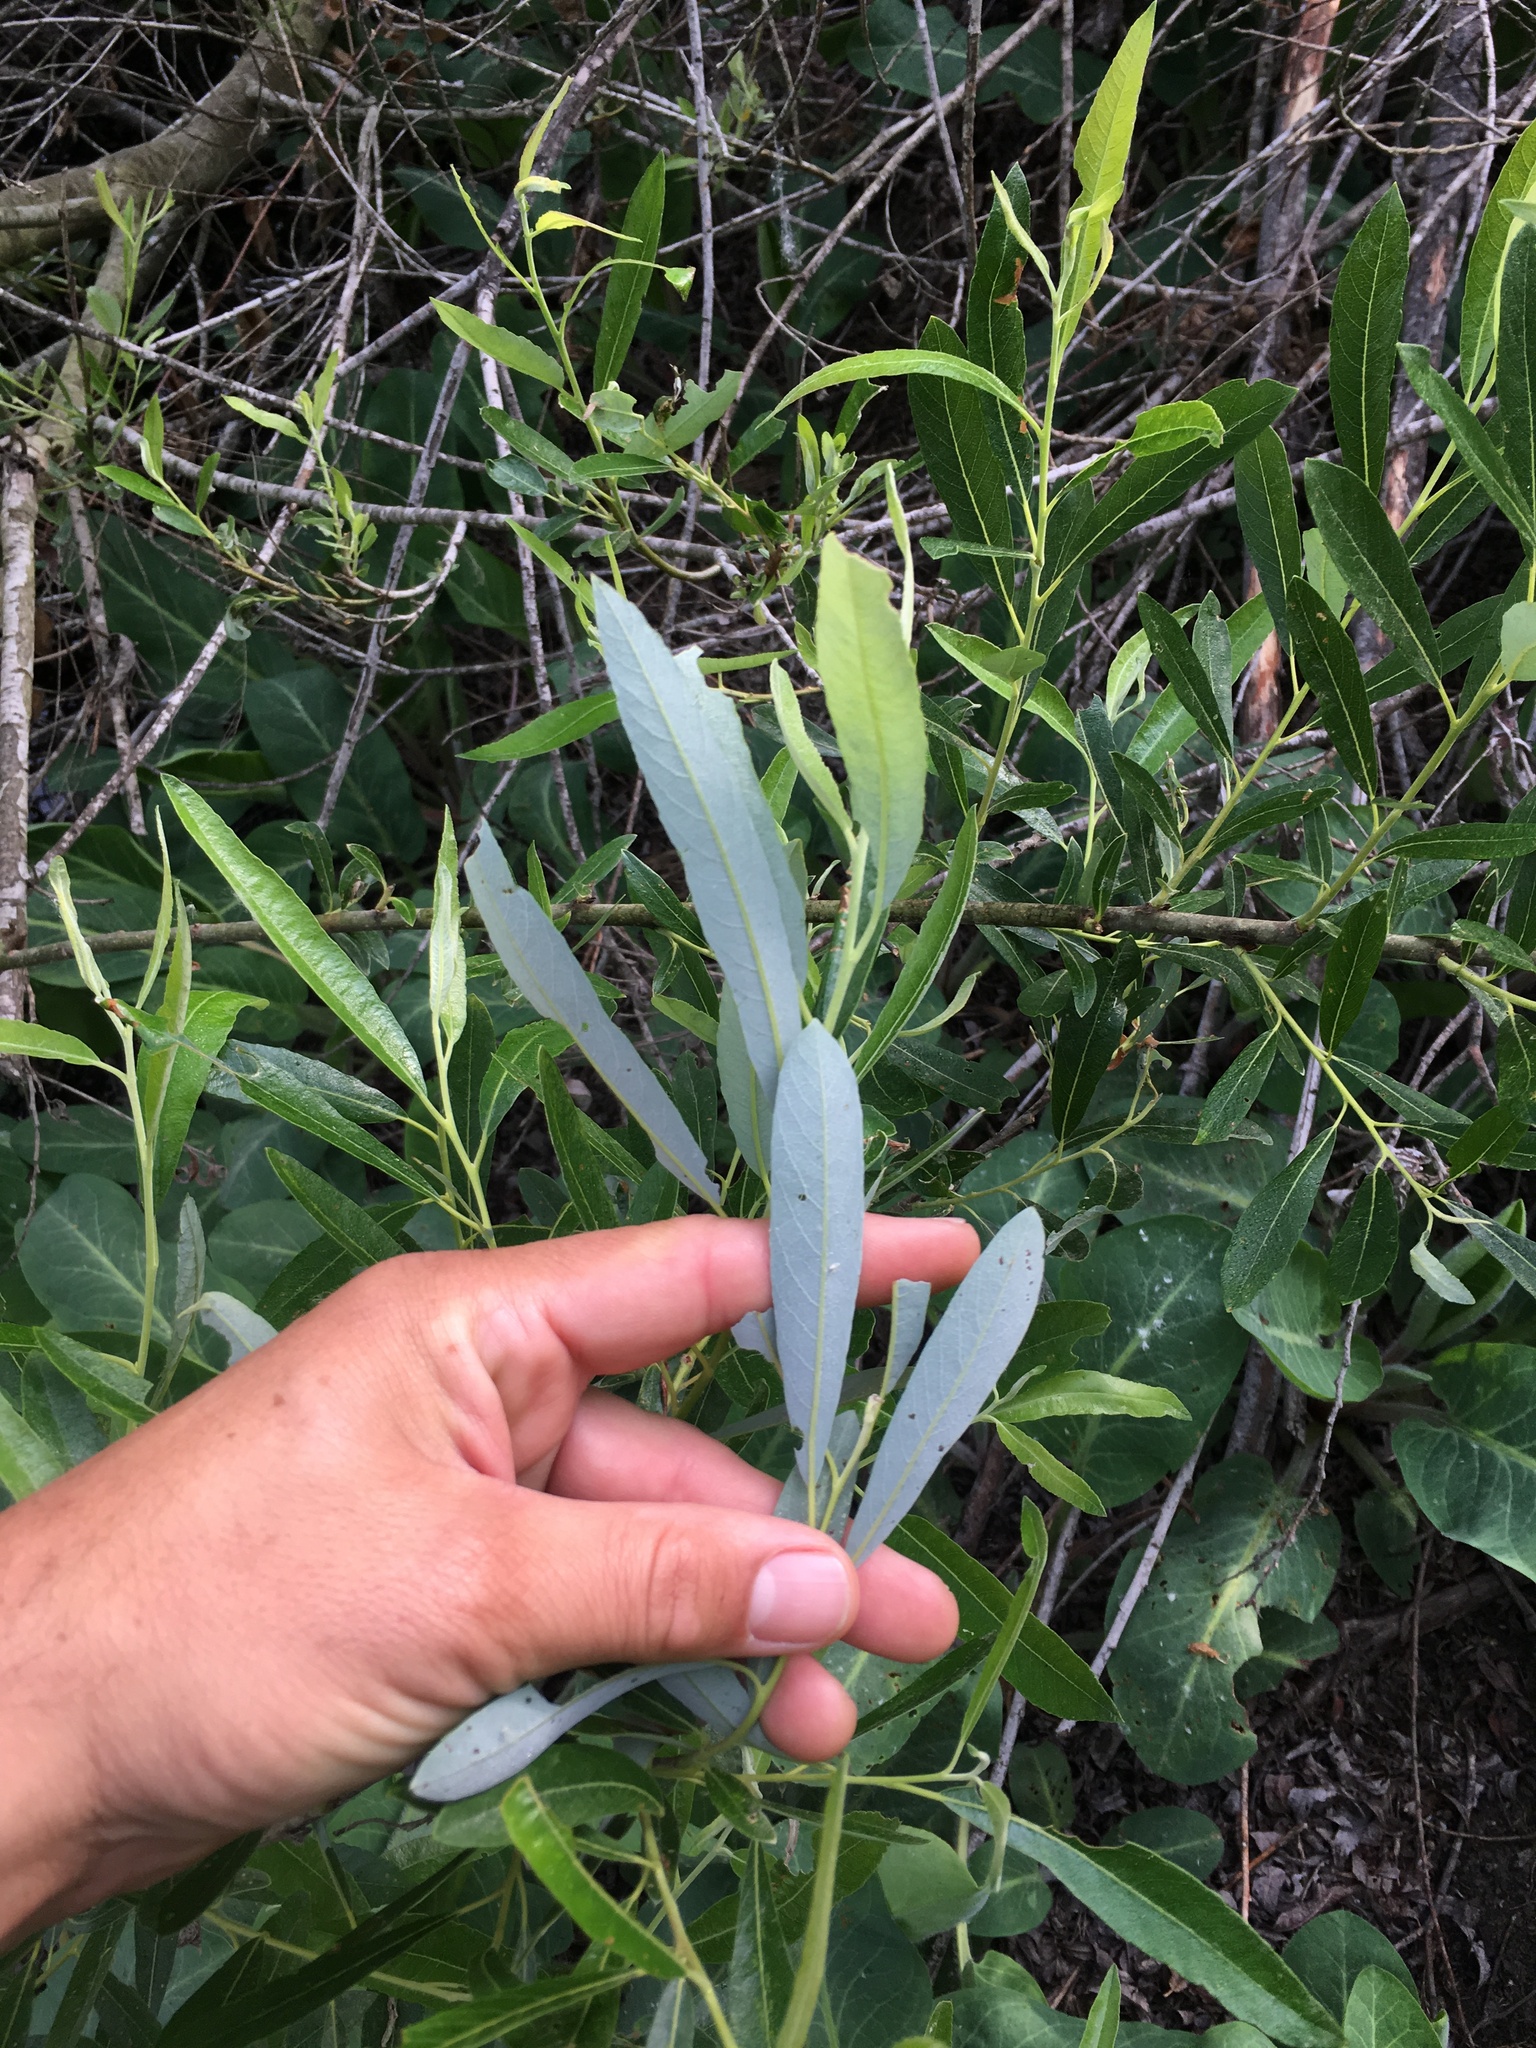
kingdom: Plantae
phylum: Tracheophyta
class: Magnoliopsida
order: Malpighiales
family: Salicaceae
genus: Salix
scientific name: Salix lasiolepis
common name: Arroyo willow
